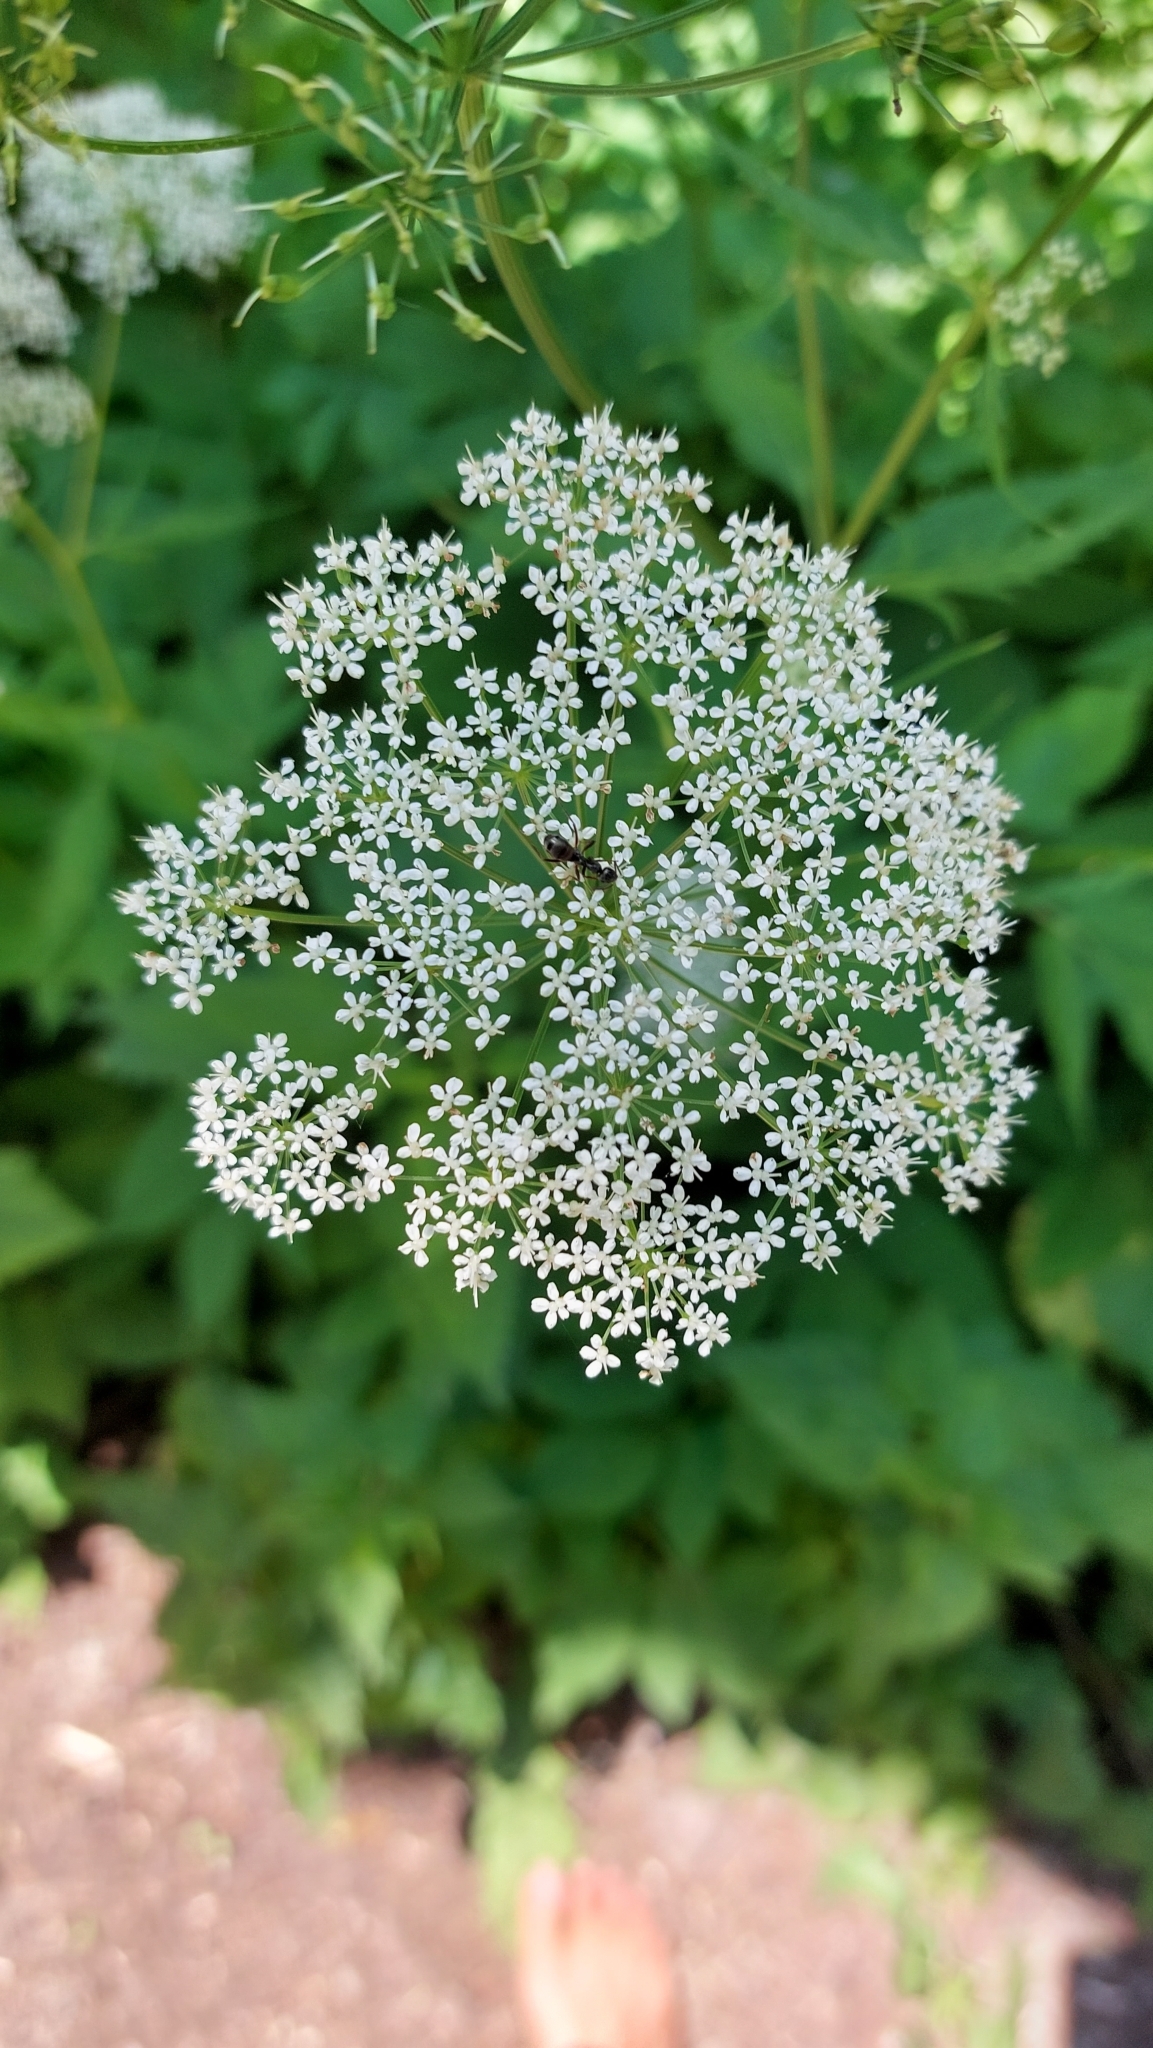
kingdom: Plantae
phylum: Tracheophyta
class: Magnoliopsida
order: Apiales
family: Apiaceae
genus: Aegopodium
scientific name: Aegopodium podagraria
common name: Ground-elder
